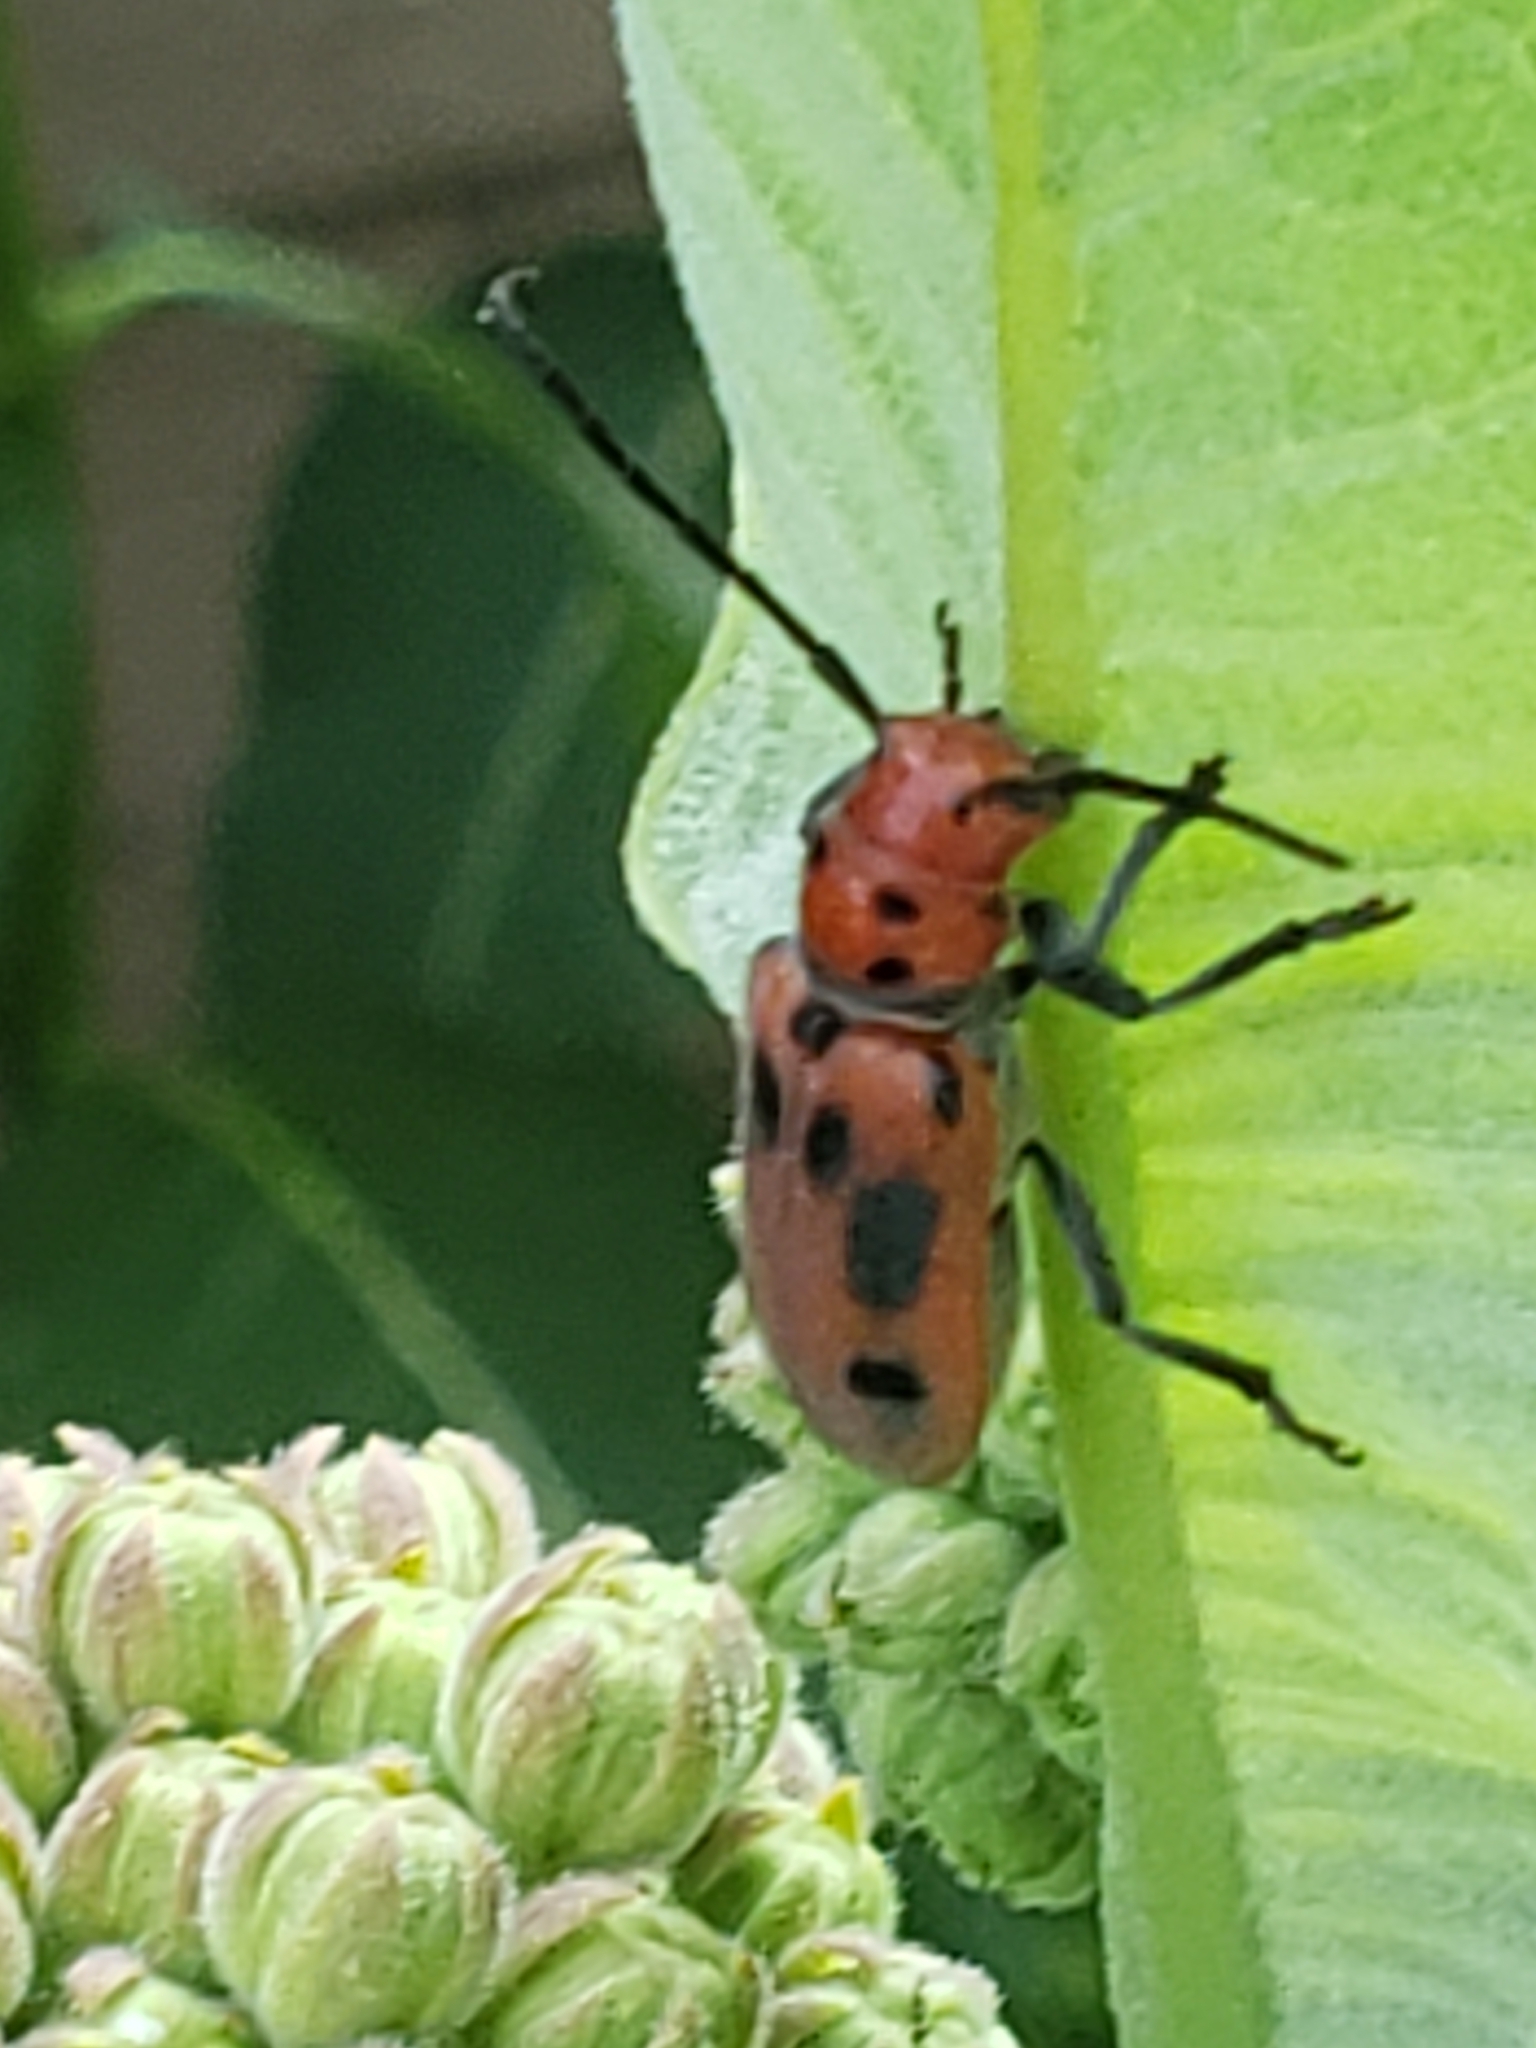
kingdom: Animalia
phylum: Arthropoda
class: Insecta
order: Coleoptera
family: Cerambycidae
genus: Tetraopes
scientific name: Tetraopes tetrophthalmus
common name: Red milkweed beetle
